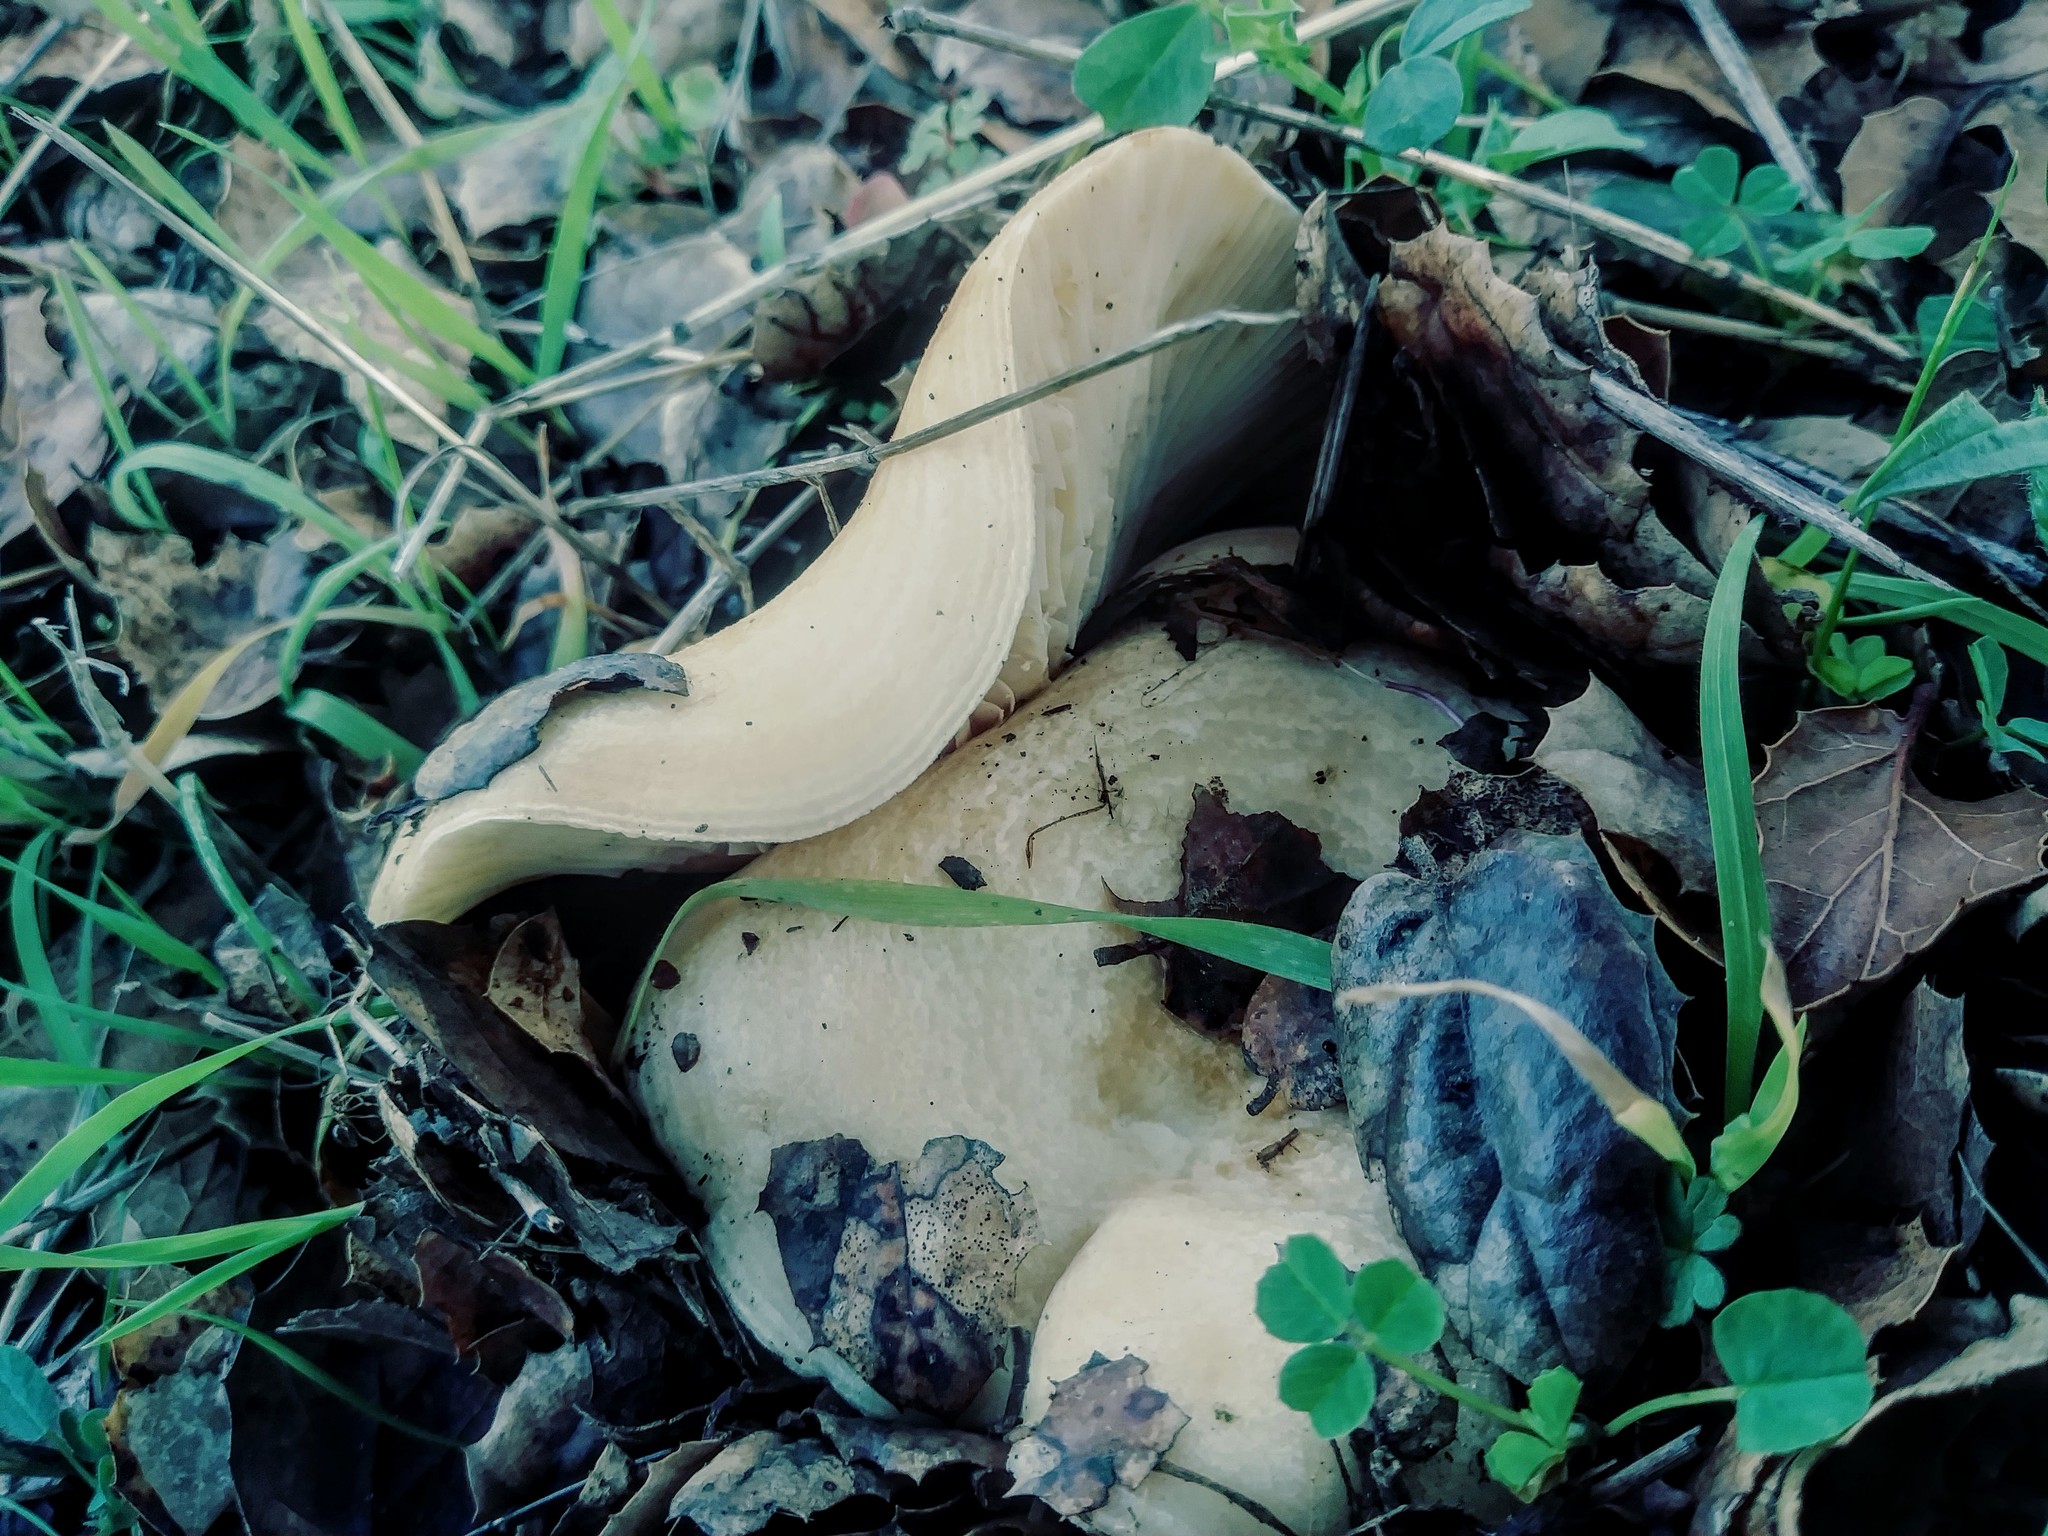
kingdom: Fungi
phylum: Basidiomycota
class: Agaricomycetes
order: Russulales
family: Russulaceae
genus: Lactarius
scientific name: Lactarius alnicola
